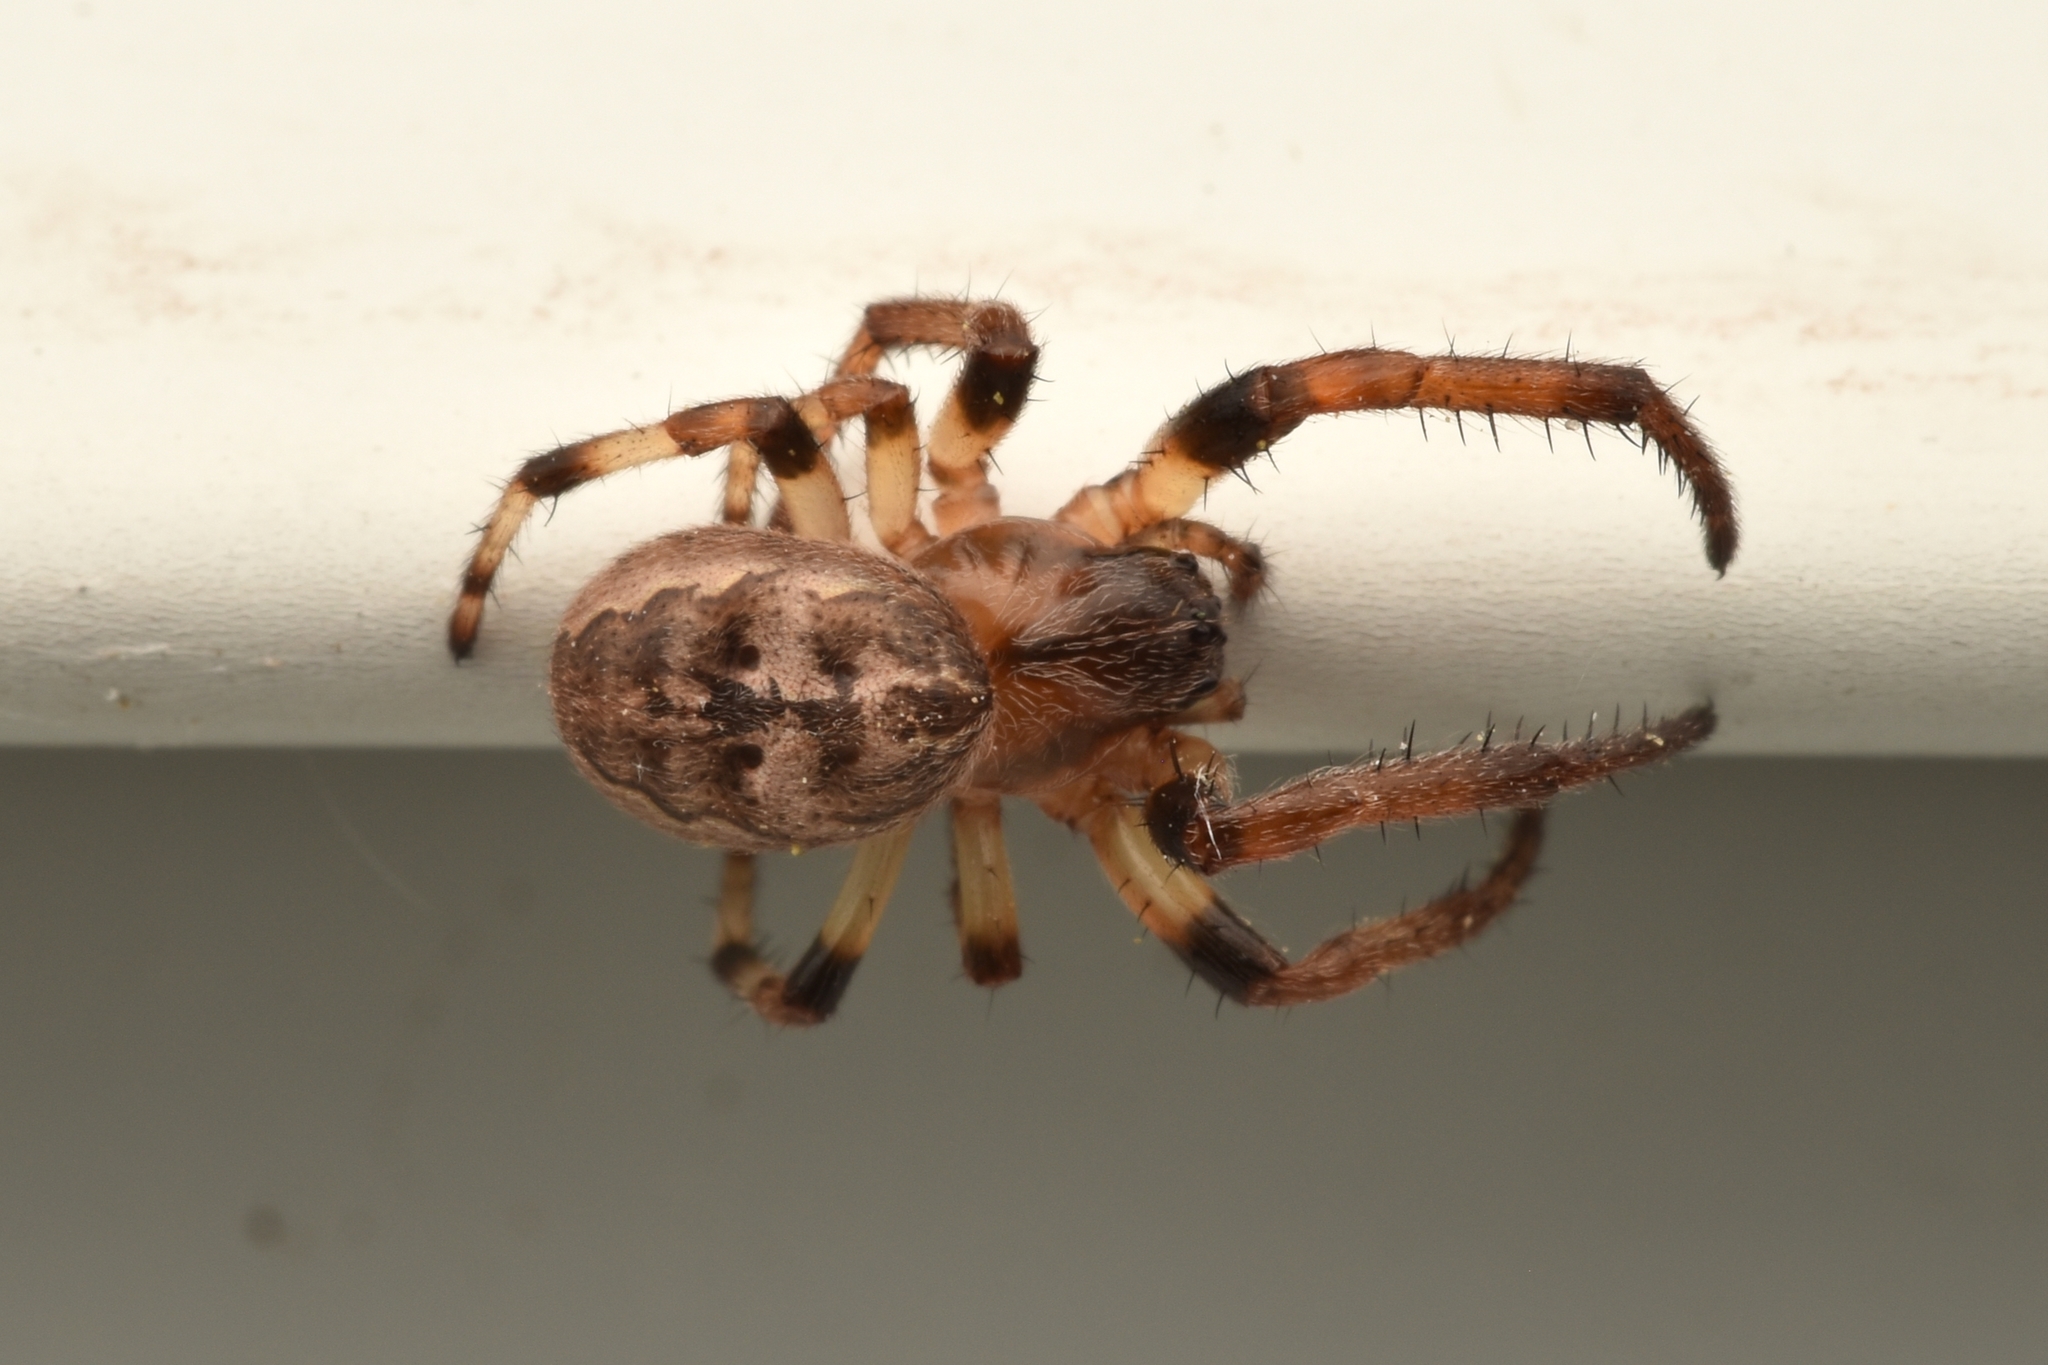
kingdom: Animalia
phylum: Arthropoda
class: Arachnida
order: Araneae
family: Araneidae
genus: Larinioides
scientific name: Larinioides cornutus
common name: Furrow orbweaver
